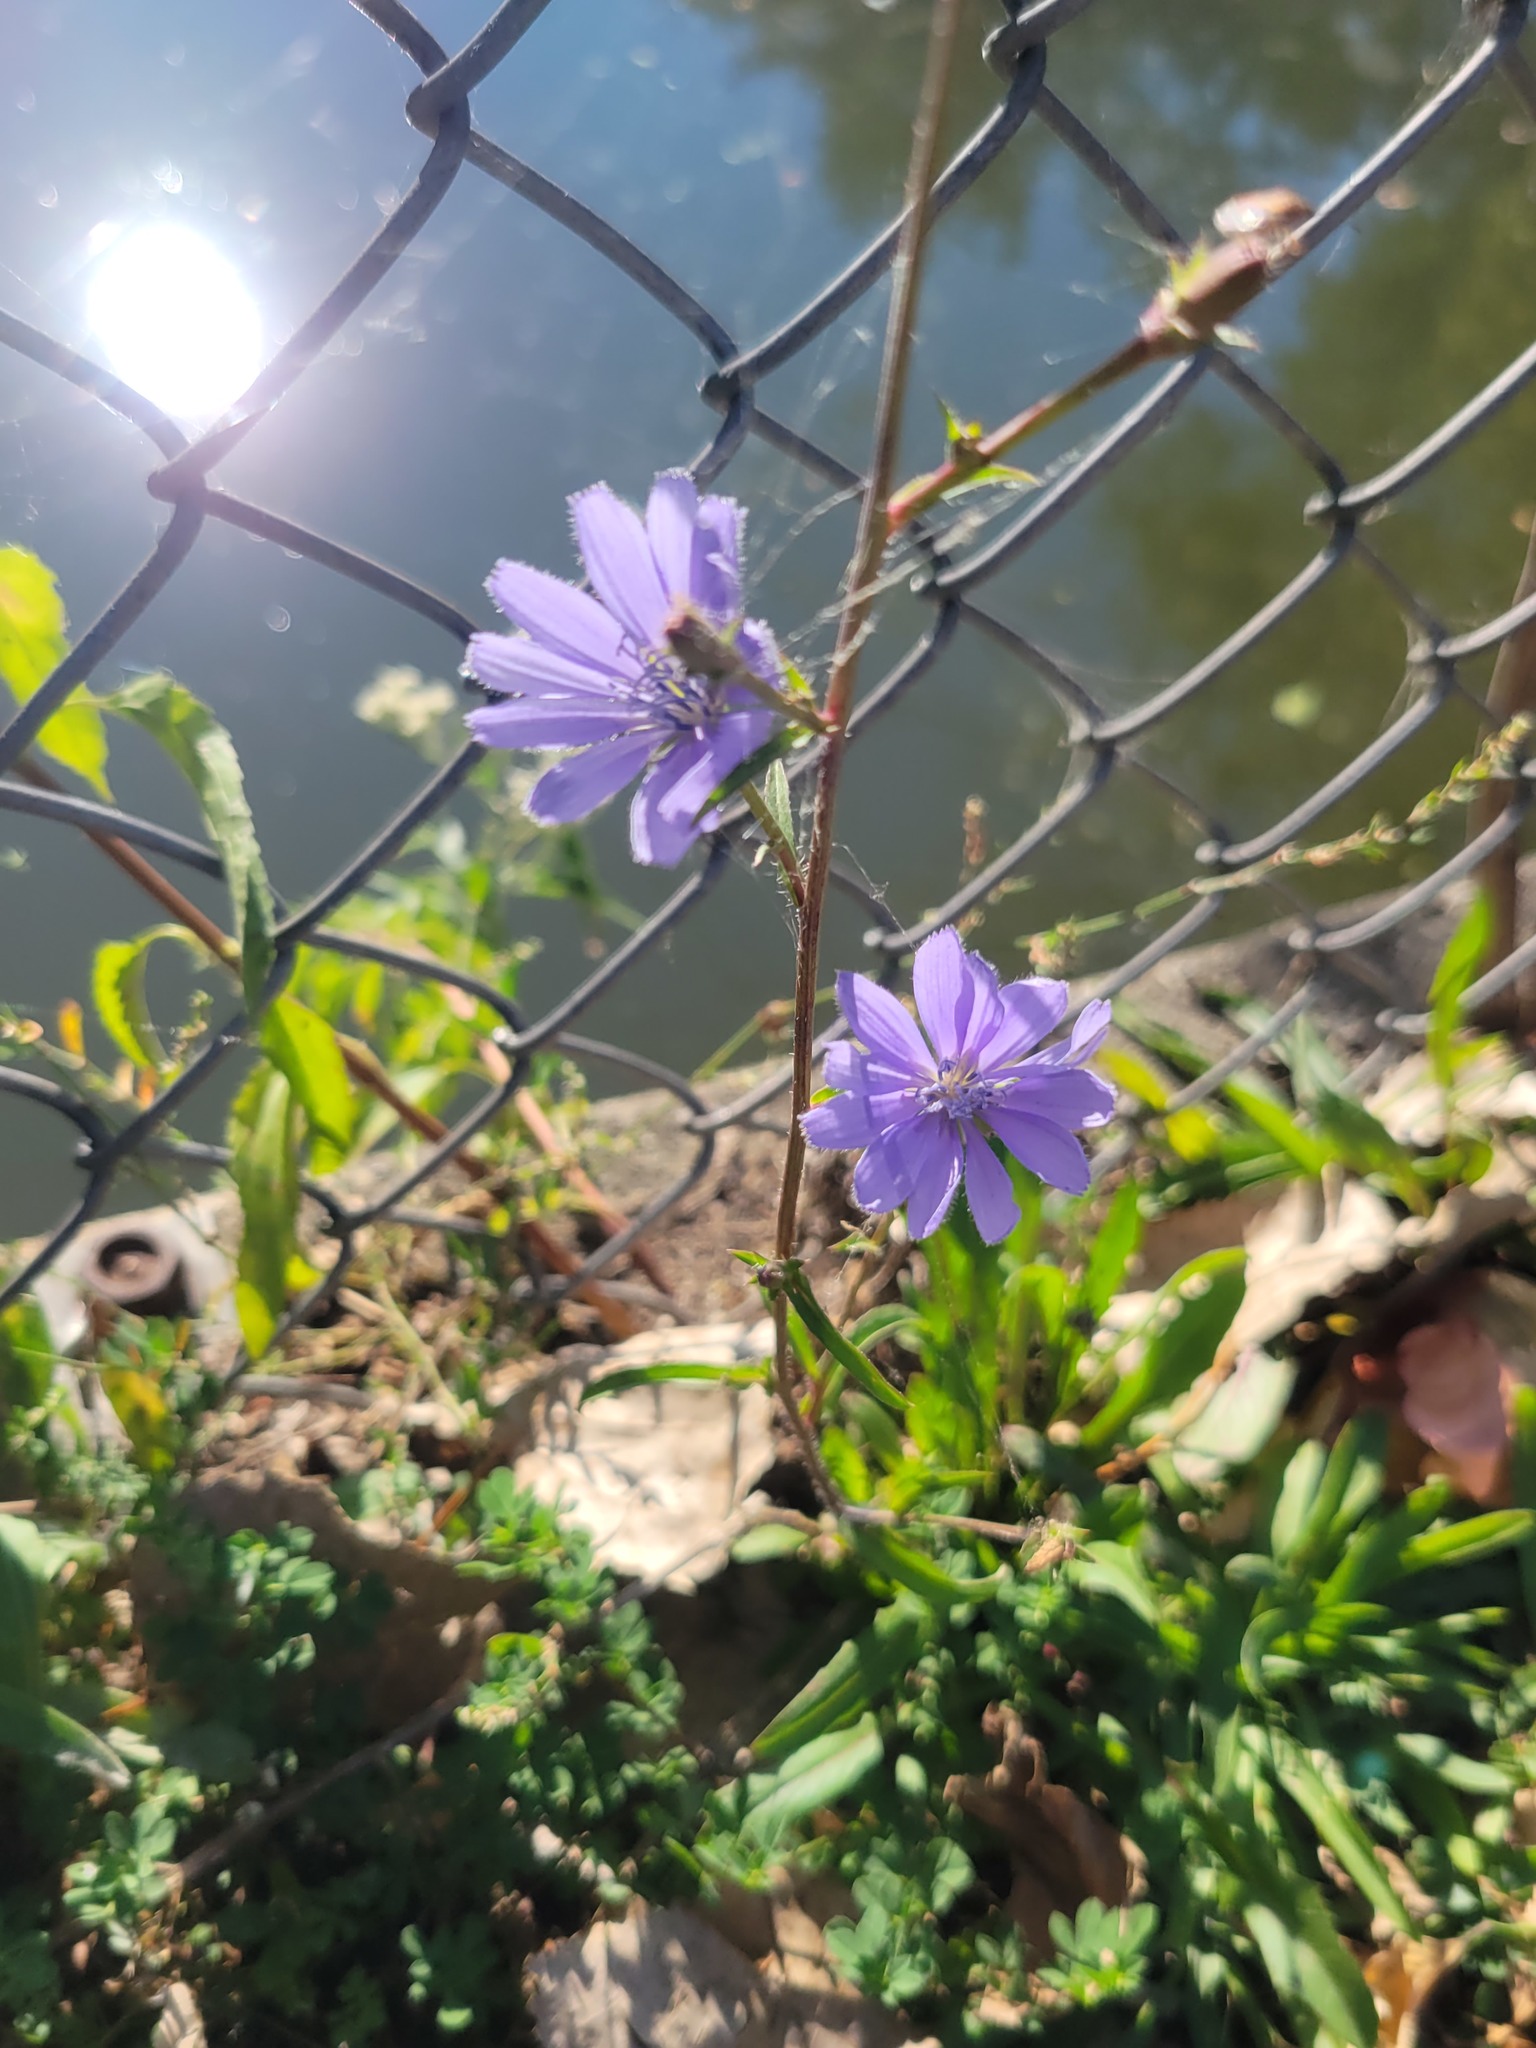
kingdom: Plantae
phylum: Tracheophyta
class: Magnoliopsida
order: Asterales
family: Asteraceae
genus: Cichorium
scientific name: Cichorium intybus
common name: Chicory
